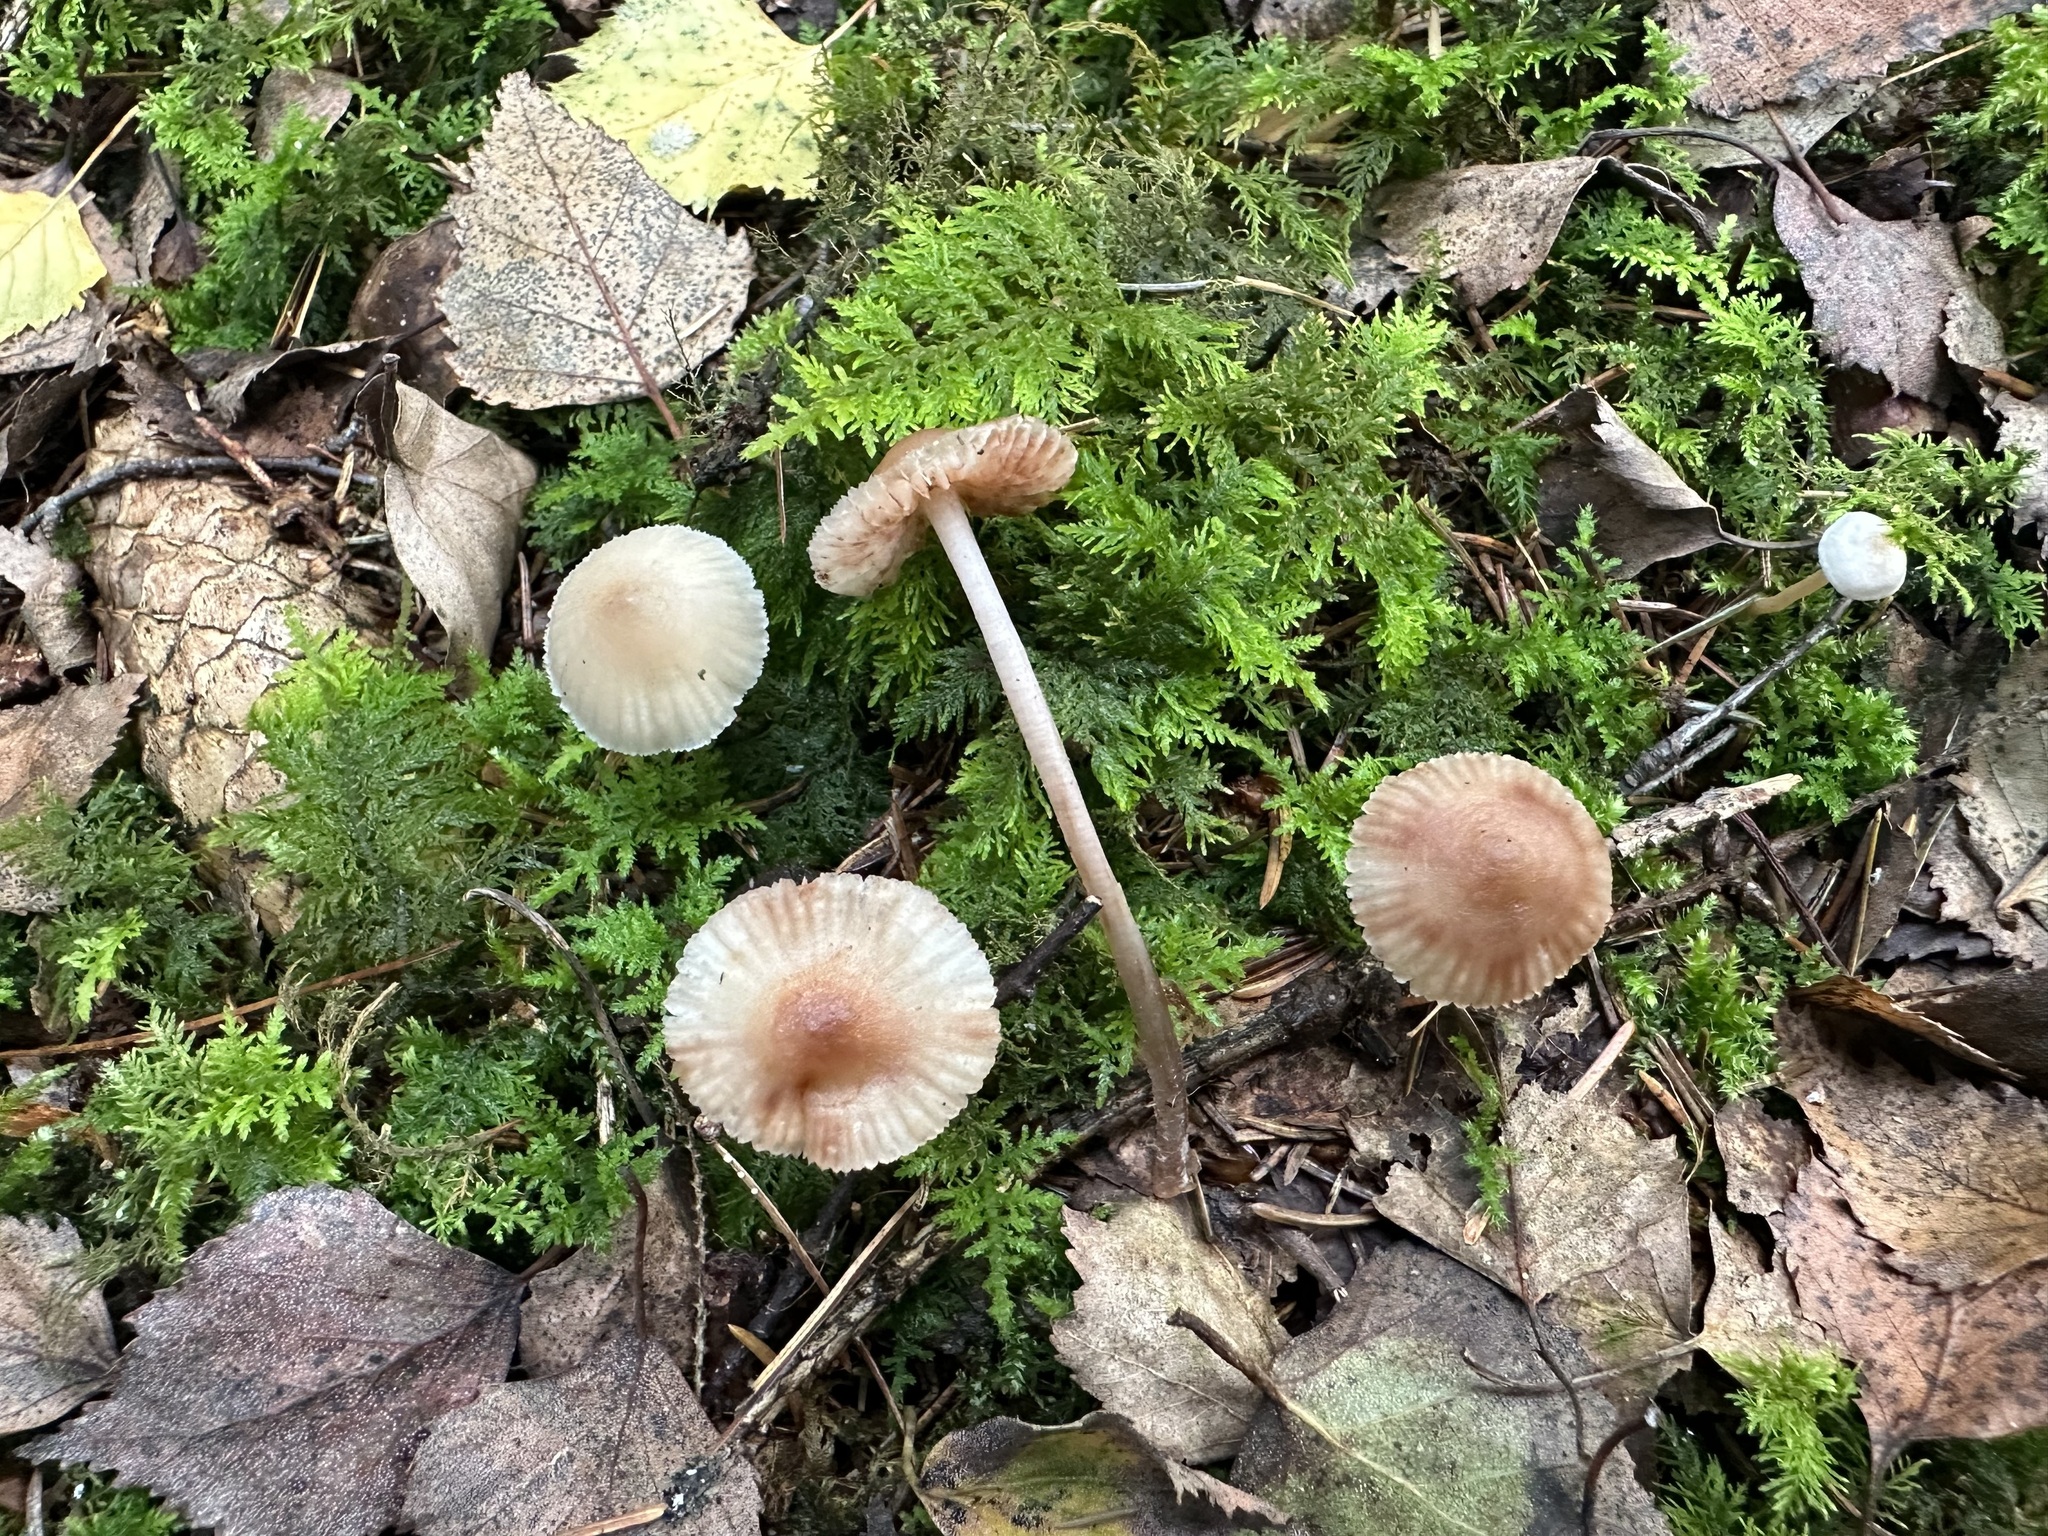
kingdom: Fungi
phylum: Basidiomycota
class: Agaricomycetes
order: Agaricales
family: Mycenaceae
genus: Mycena
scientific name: Mycena zephirus
